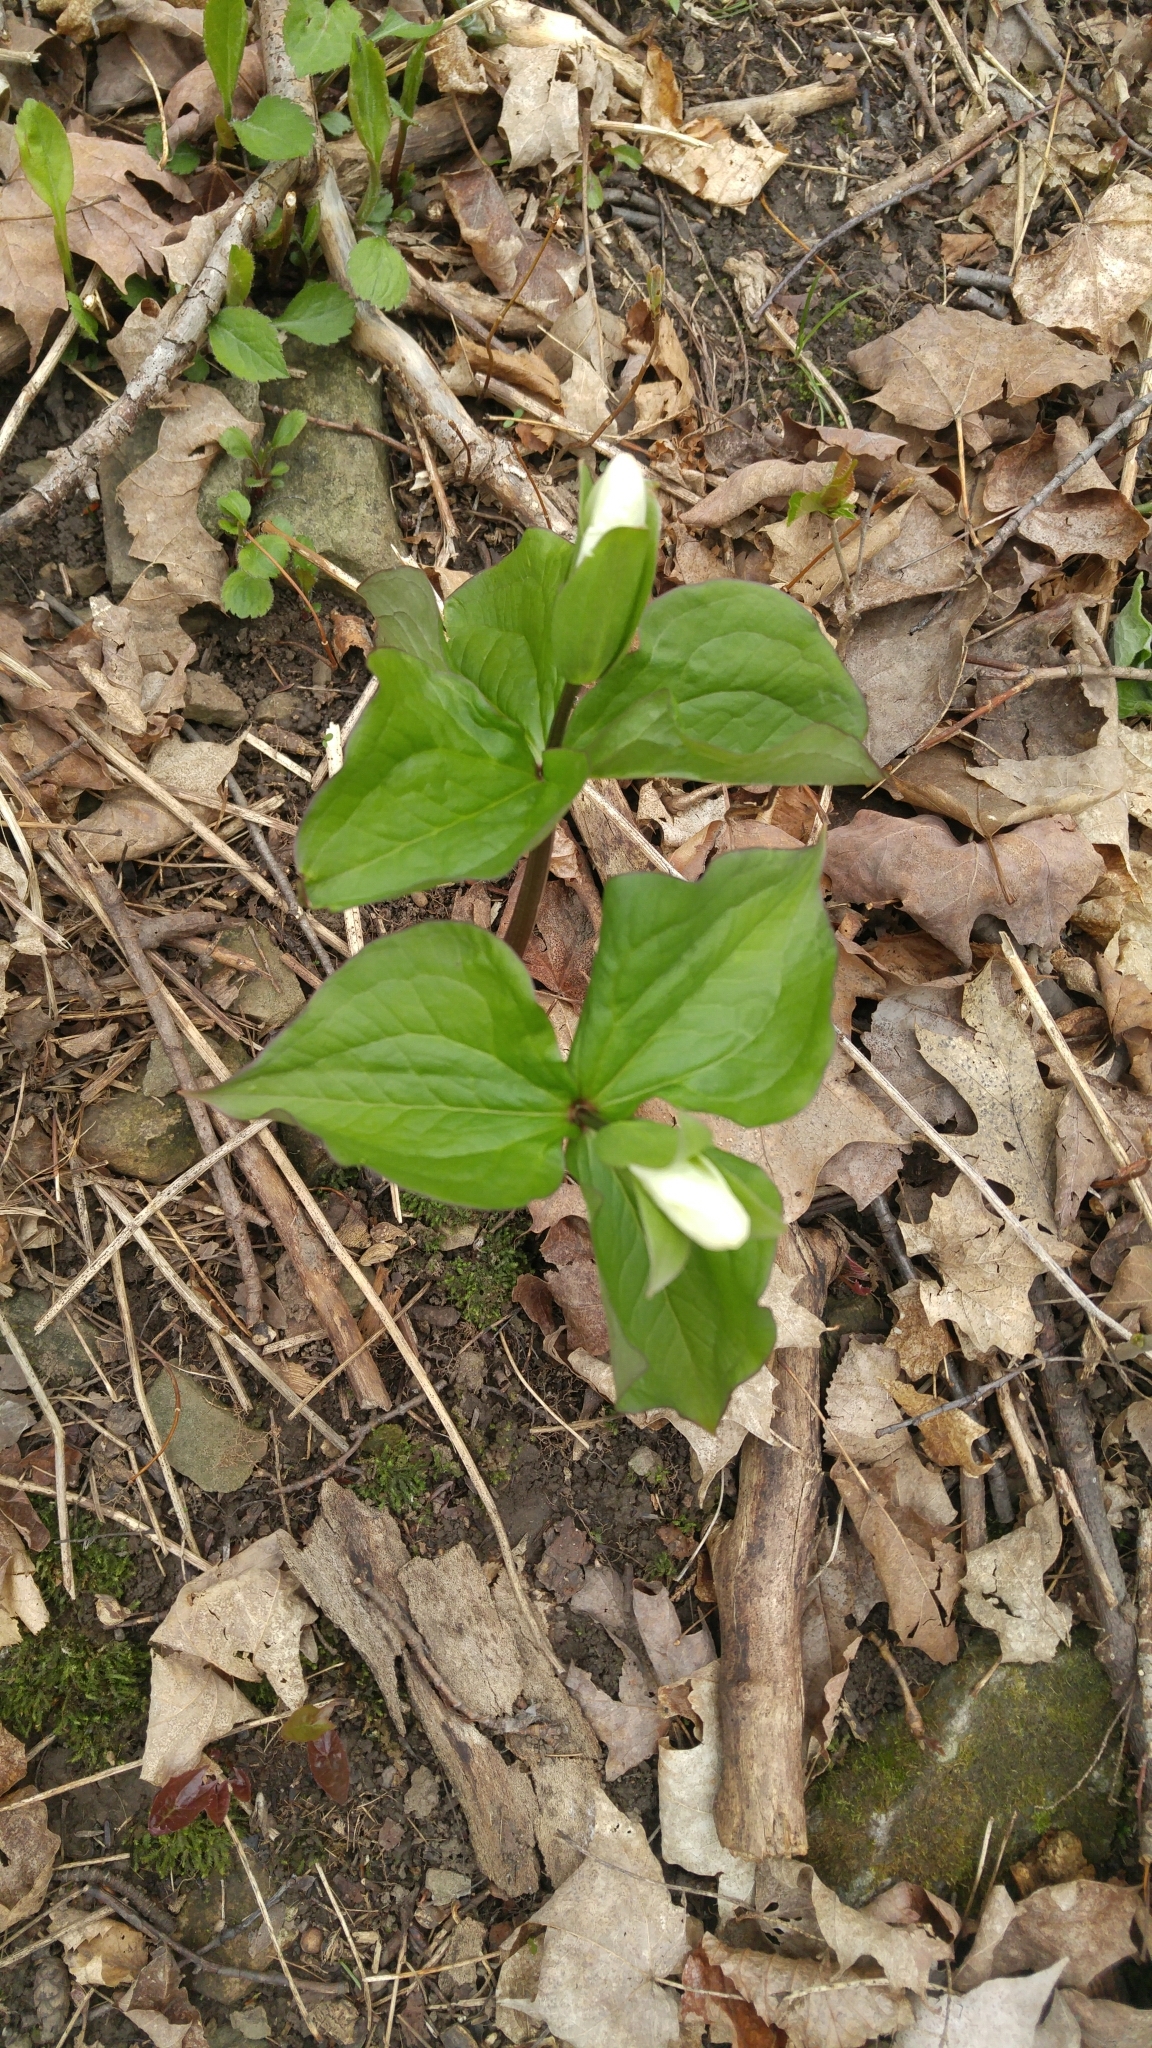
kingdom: Plantae
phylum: Tracheophyta
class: Liliopsida
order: Liliales
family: Melanthiaceae
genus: Trillium
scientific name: Trillium grandiflorum
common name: Great white trillium
